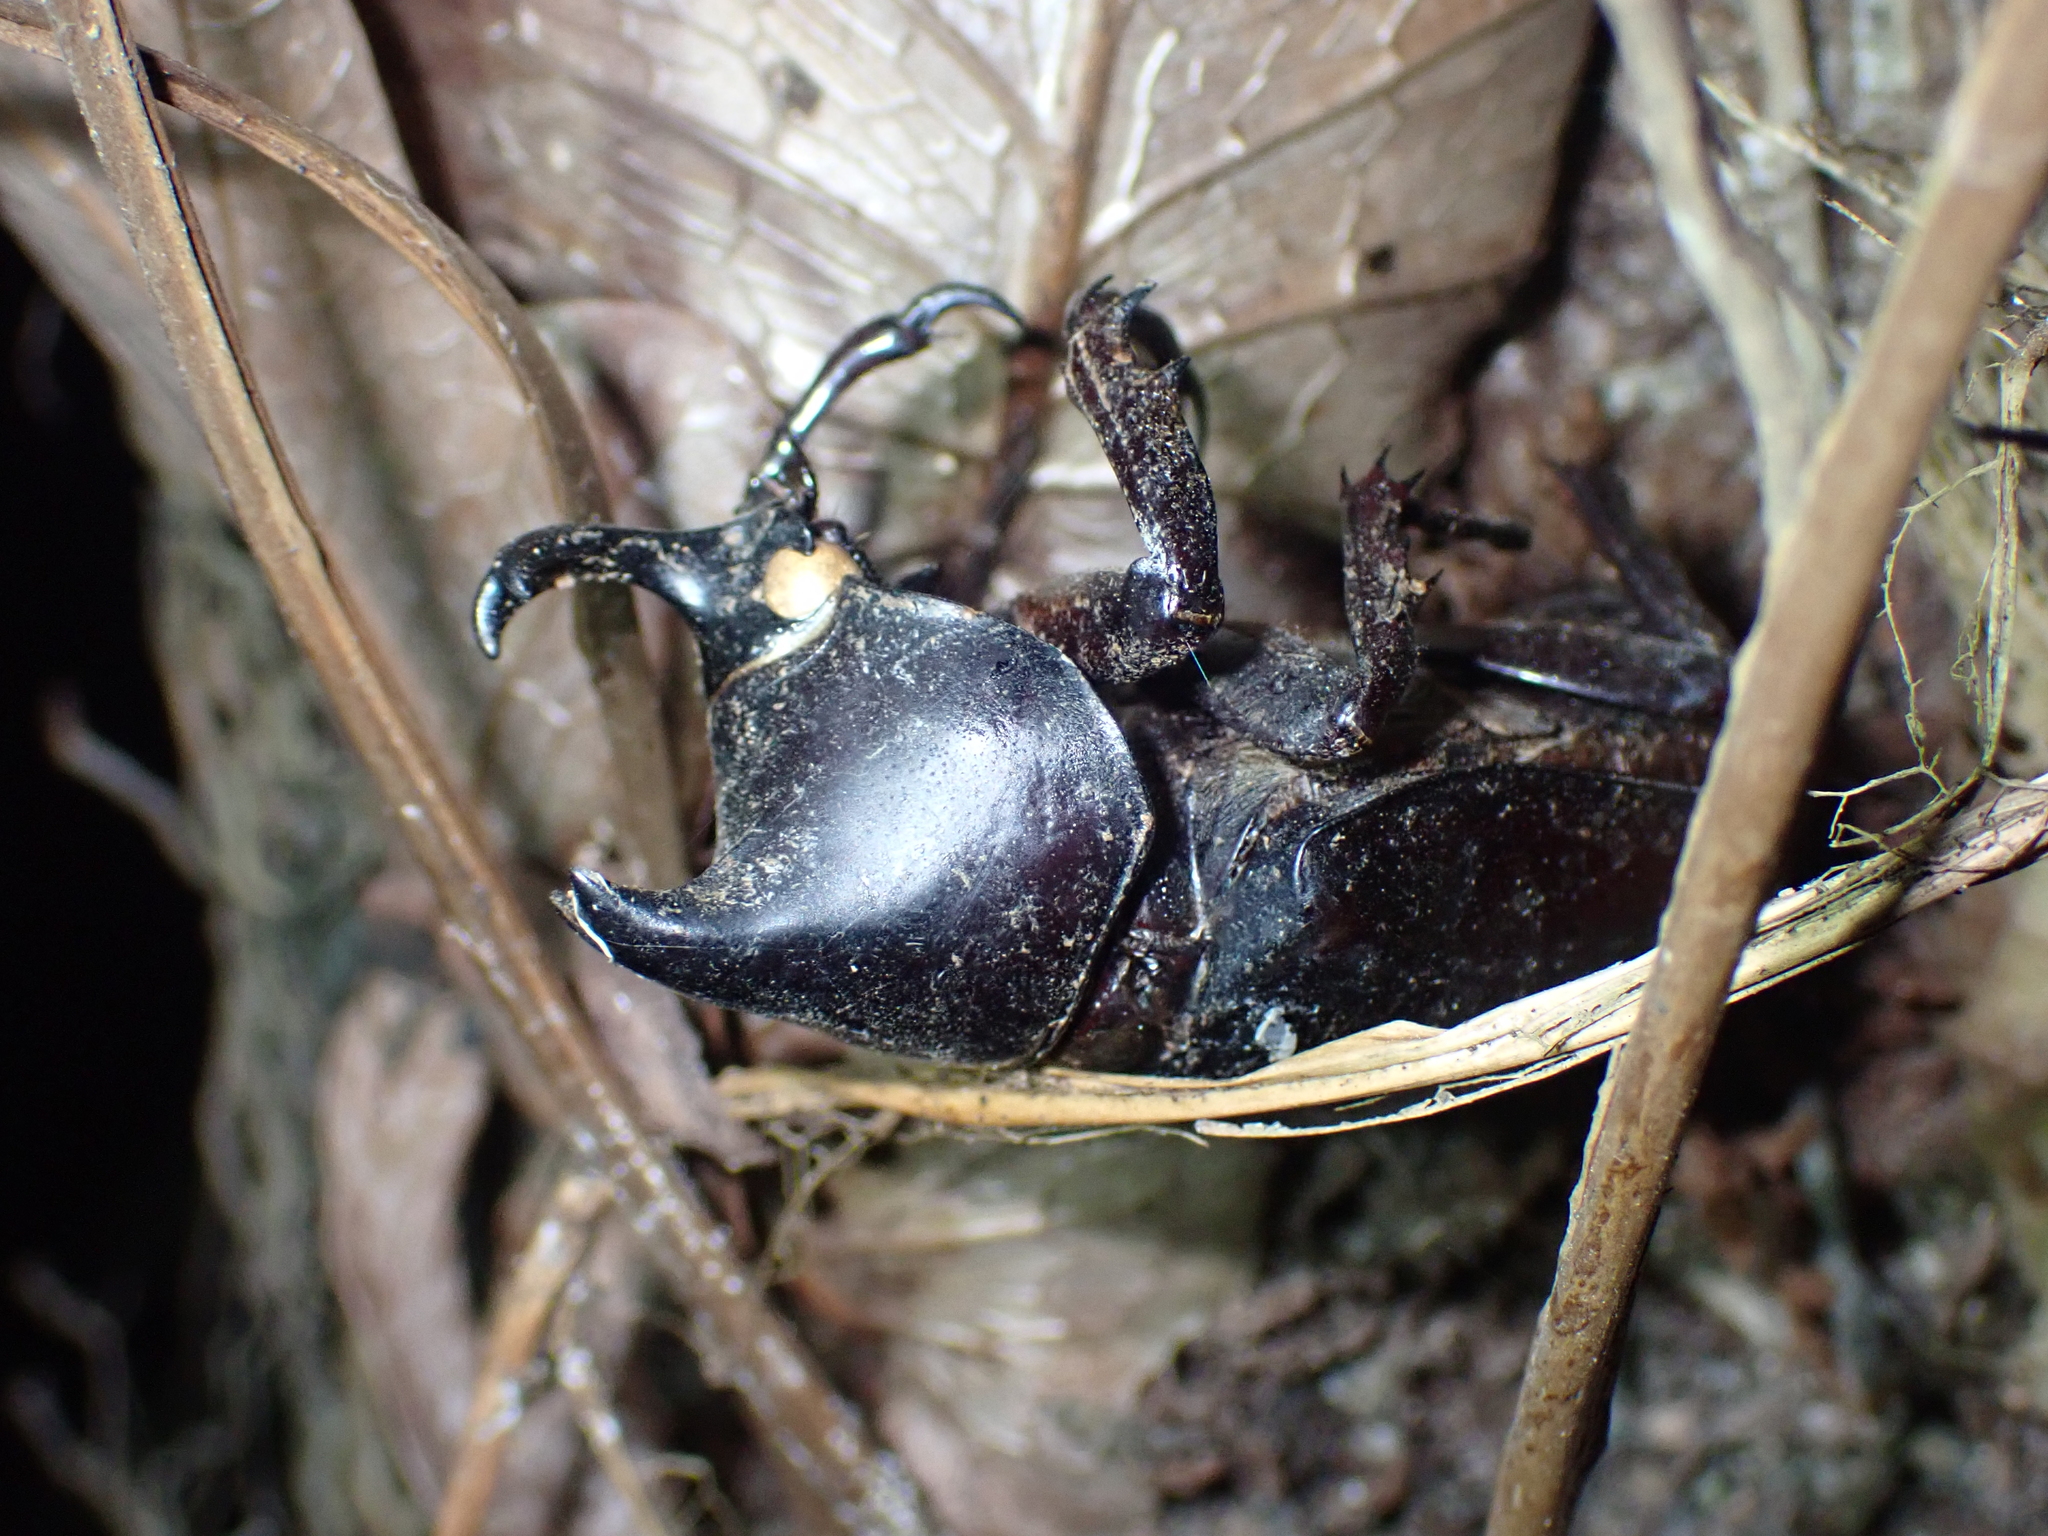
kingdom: Animalia
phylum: Arthropoda
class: Insecta
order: Coleoptera
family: Scarabaeidae
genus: Xylotrupes
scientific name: Xylotrupes socrates
